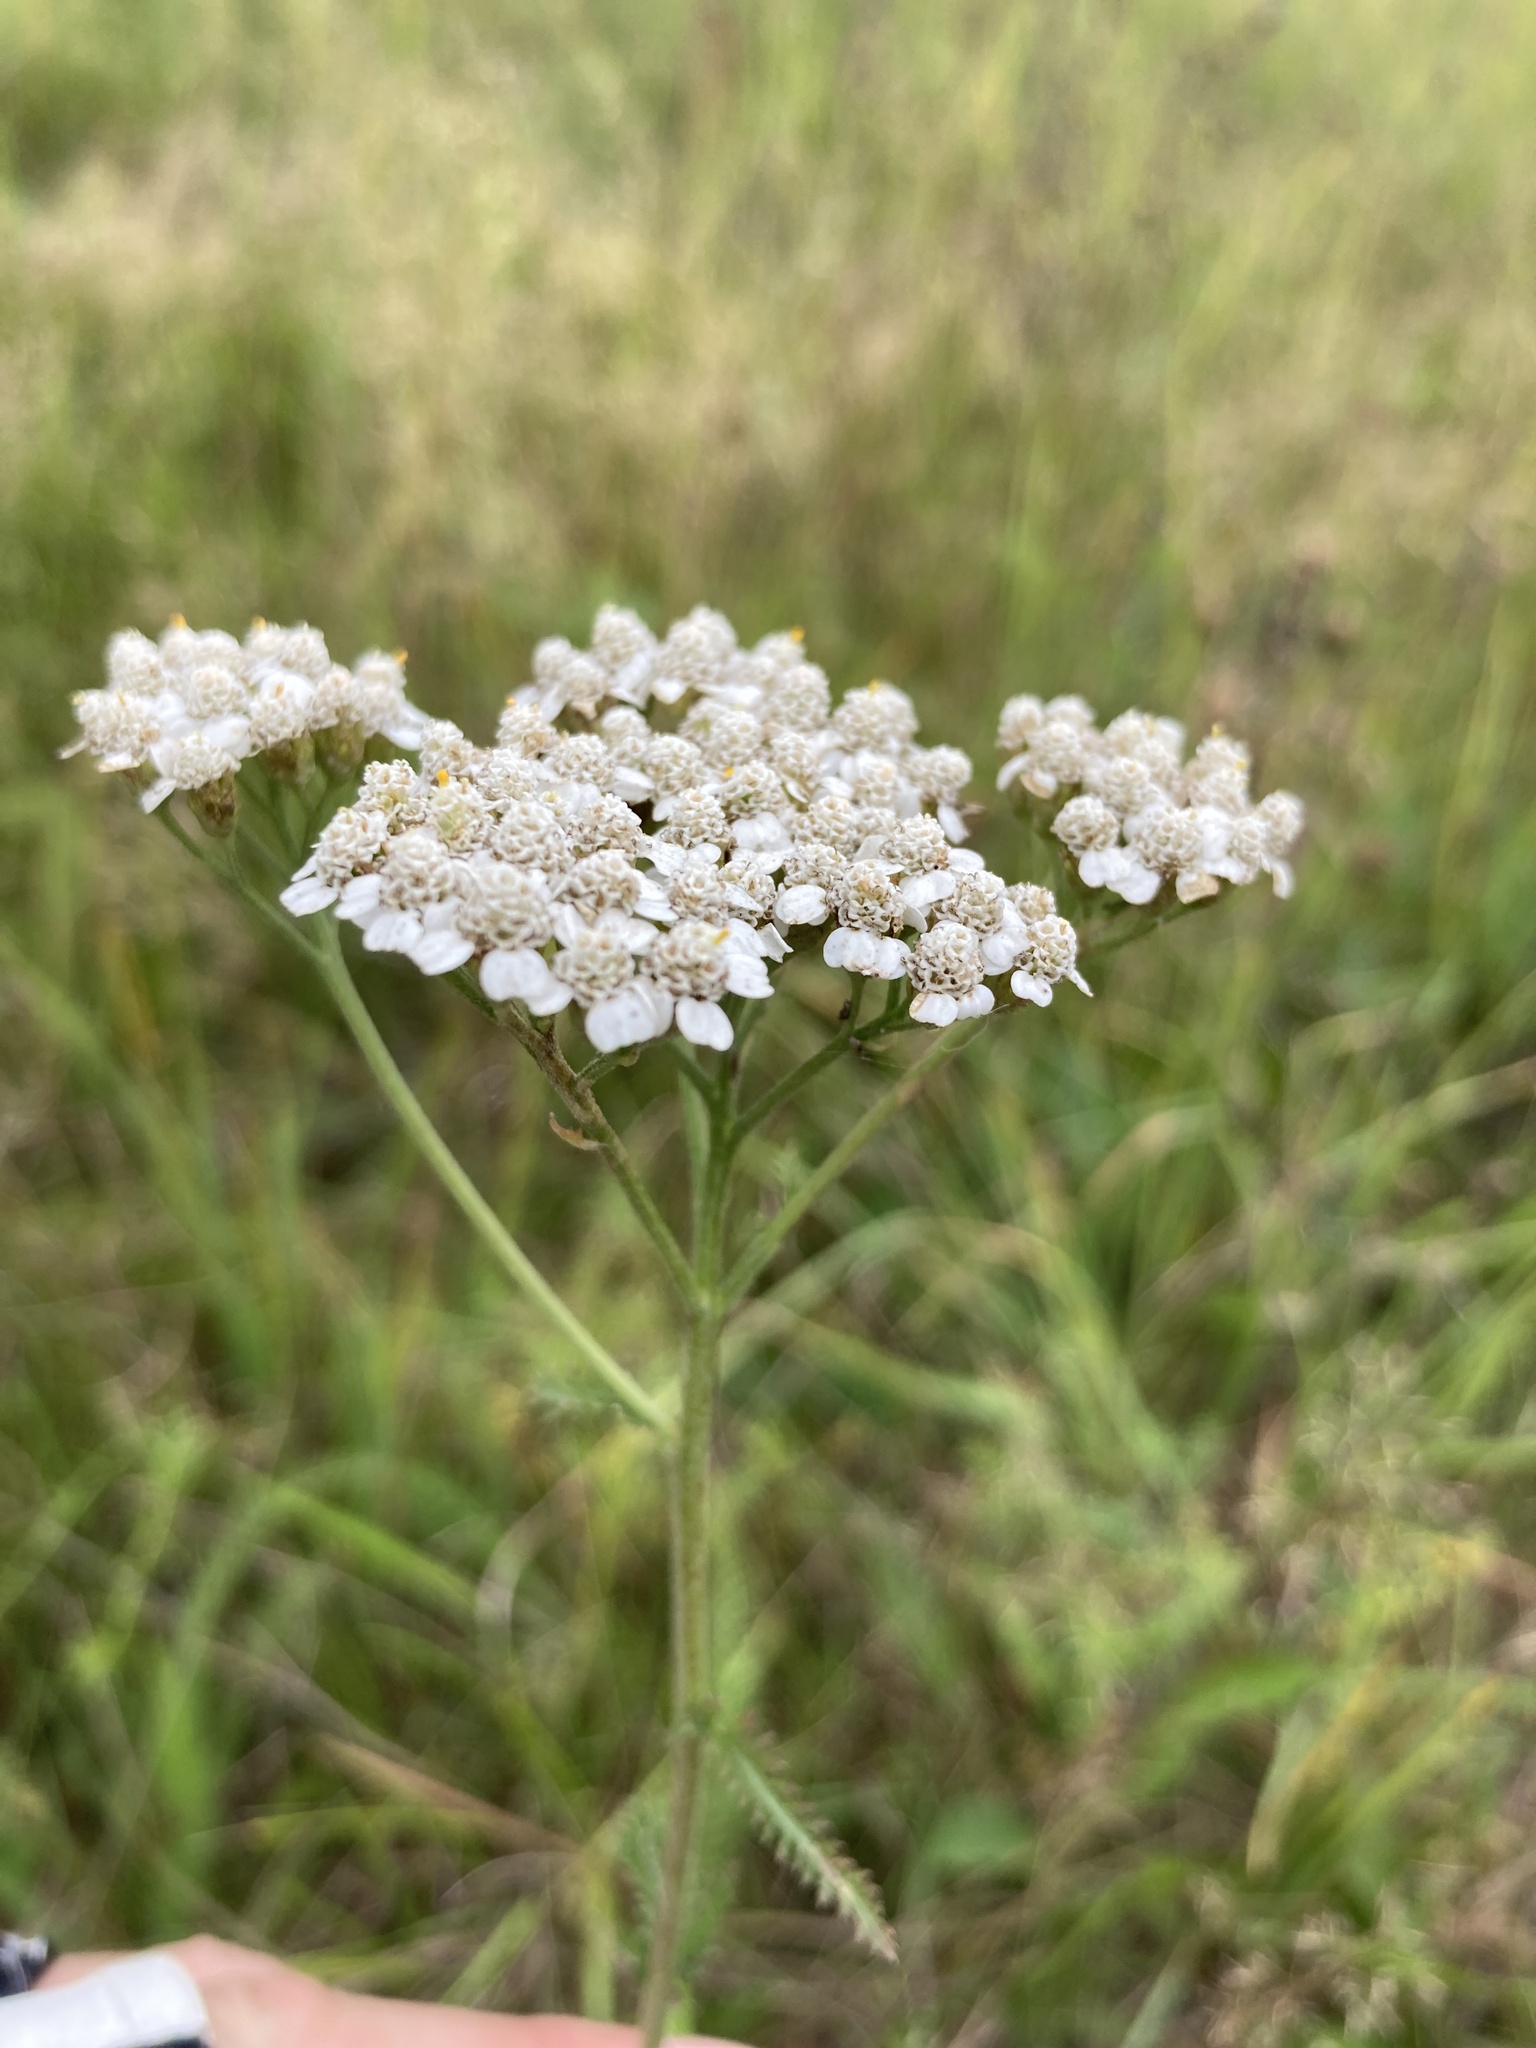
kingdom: Plantae
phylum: Tracheophyta
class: Magnoliopsida
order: Asterales
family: Asteraceae
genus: Achillea
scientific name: Achillea millefolium
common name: Yarrow
